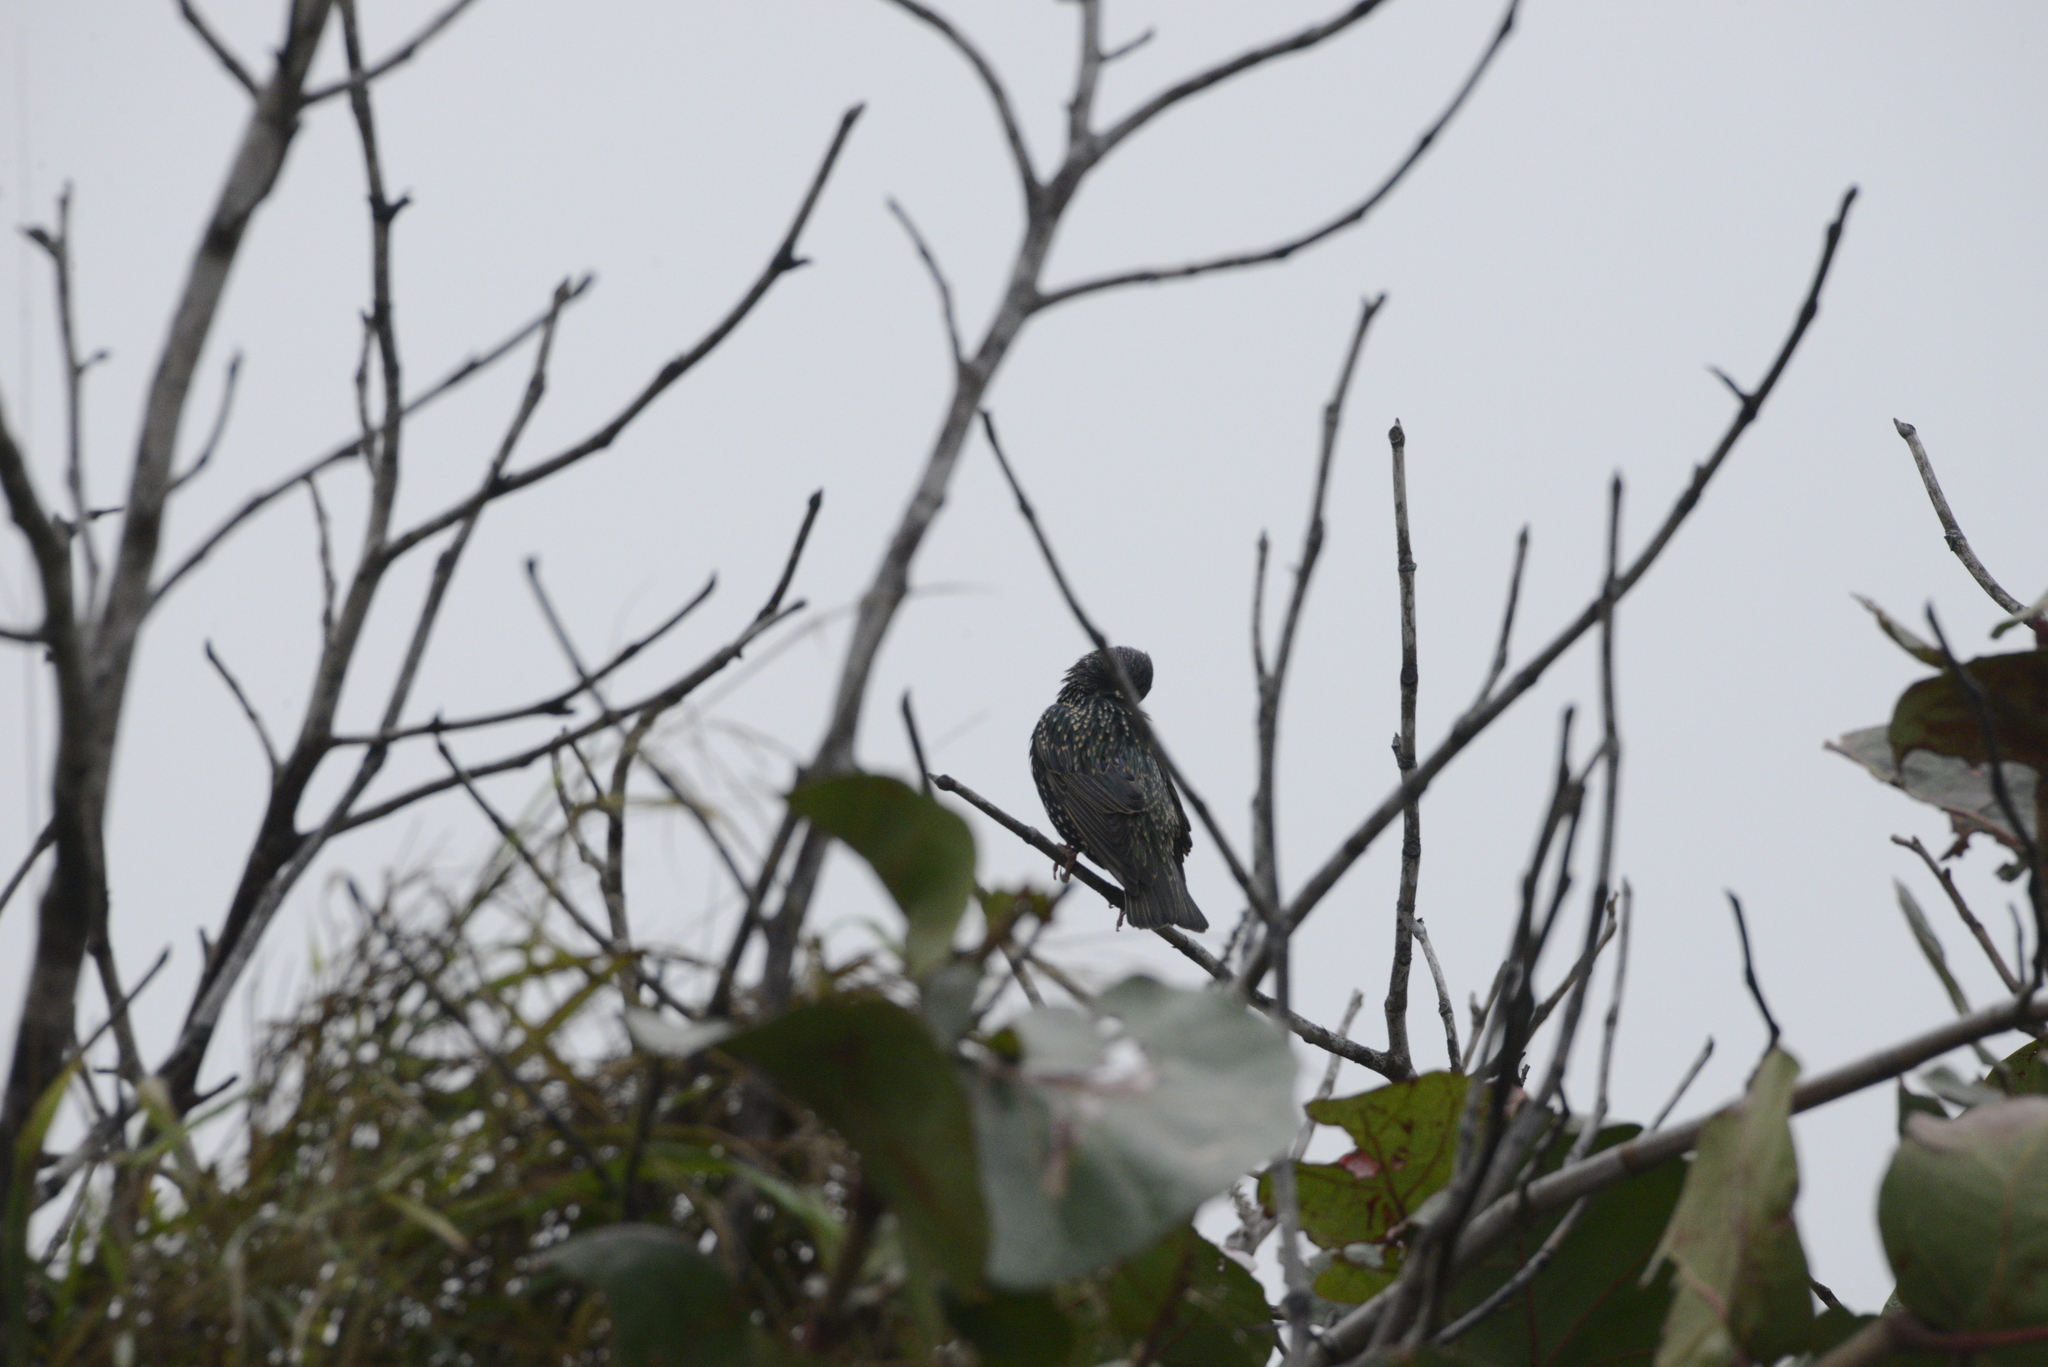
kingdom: Animalia
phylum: Chordata
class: Aves
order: Passeriformes
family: Sturnidae
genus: Sturnus
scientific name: Sturnus vulgaris
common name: Common starling
